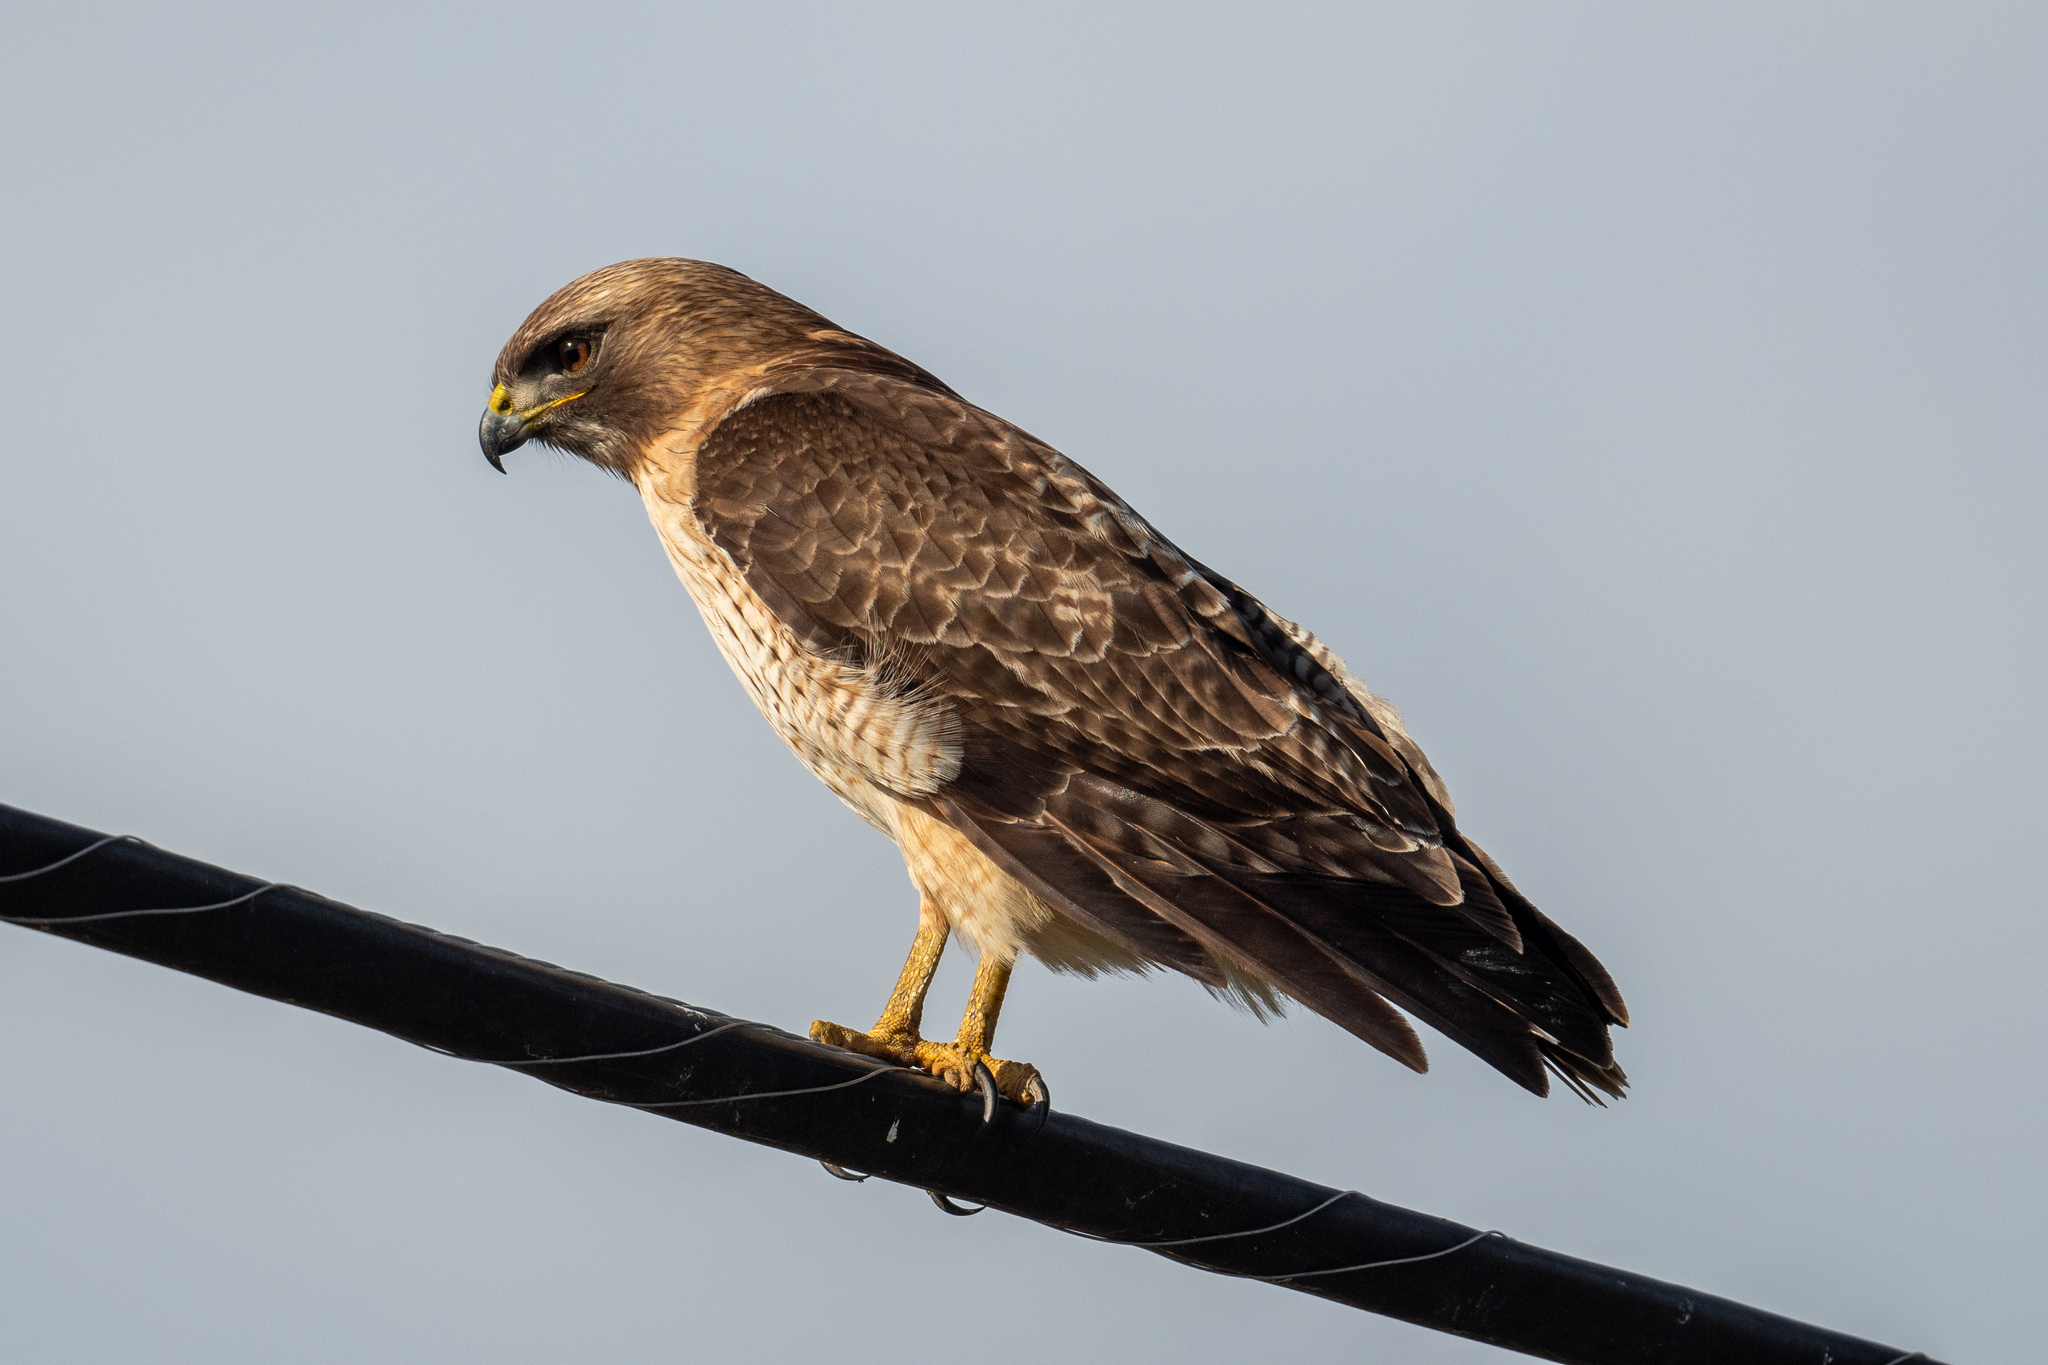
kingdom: Animalia
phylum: Chordata
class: Aves
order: Accipitriformes
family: Accipitridae
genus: Buteo
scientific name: Buteo jamaicensis
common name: Red-tailed hawk
